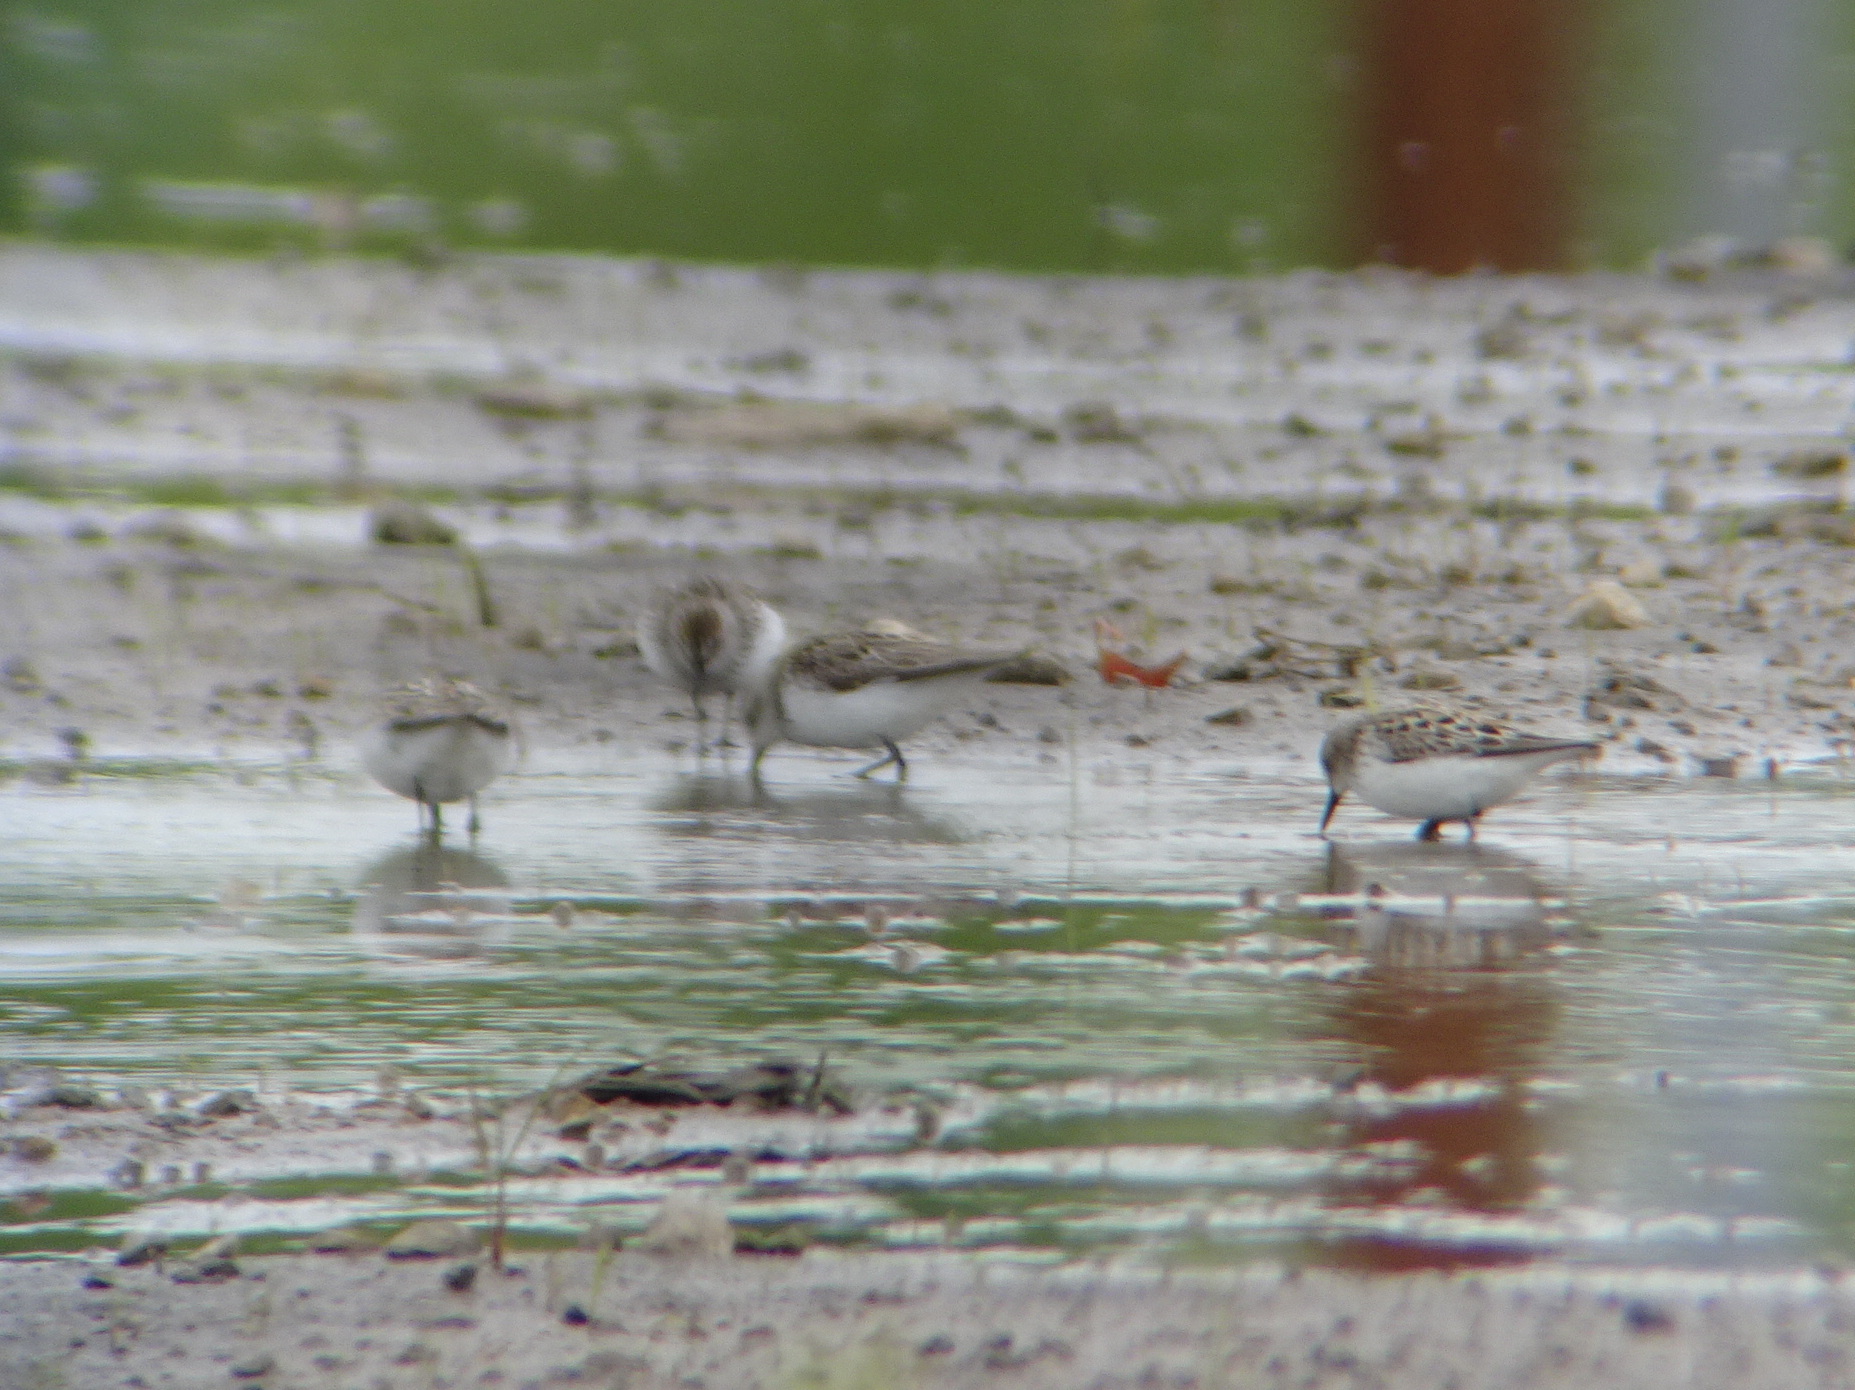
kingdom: Animalia
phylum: Chordata
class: Aves
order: Charadriiformes
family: Scolopacidae
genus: Calidris
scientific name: Calidris pusilla
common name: Semipalmated sandpiper
